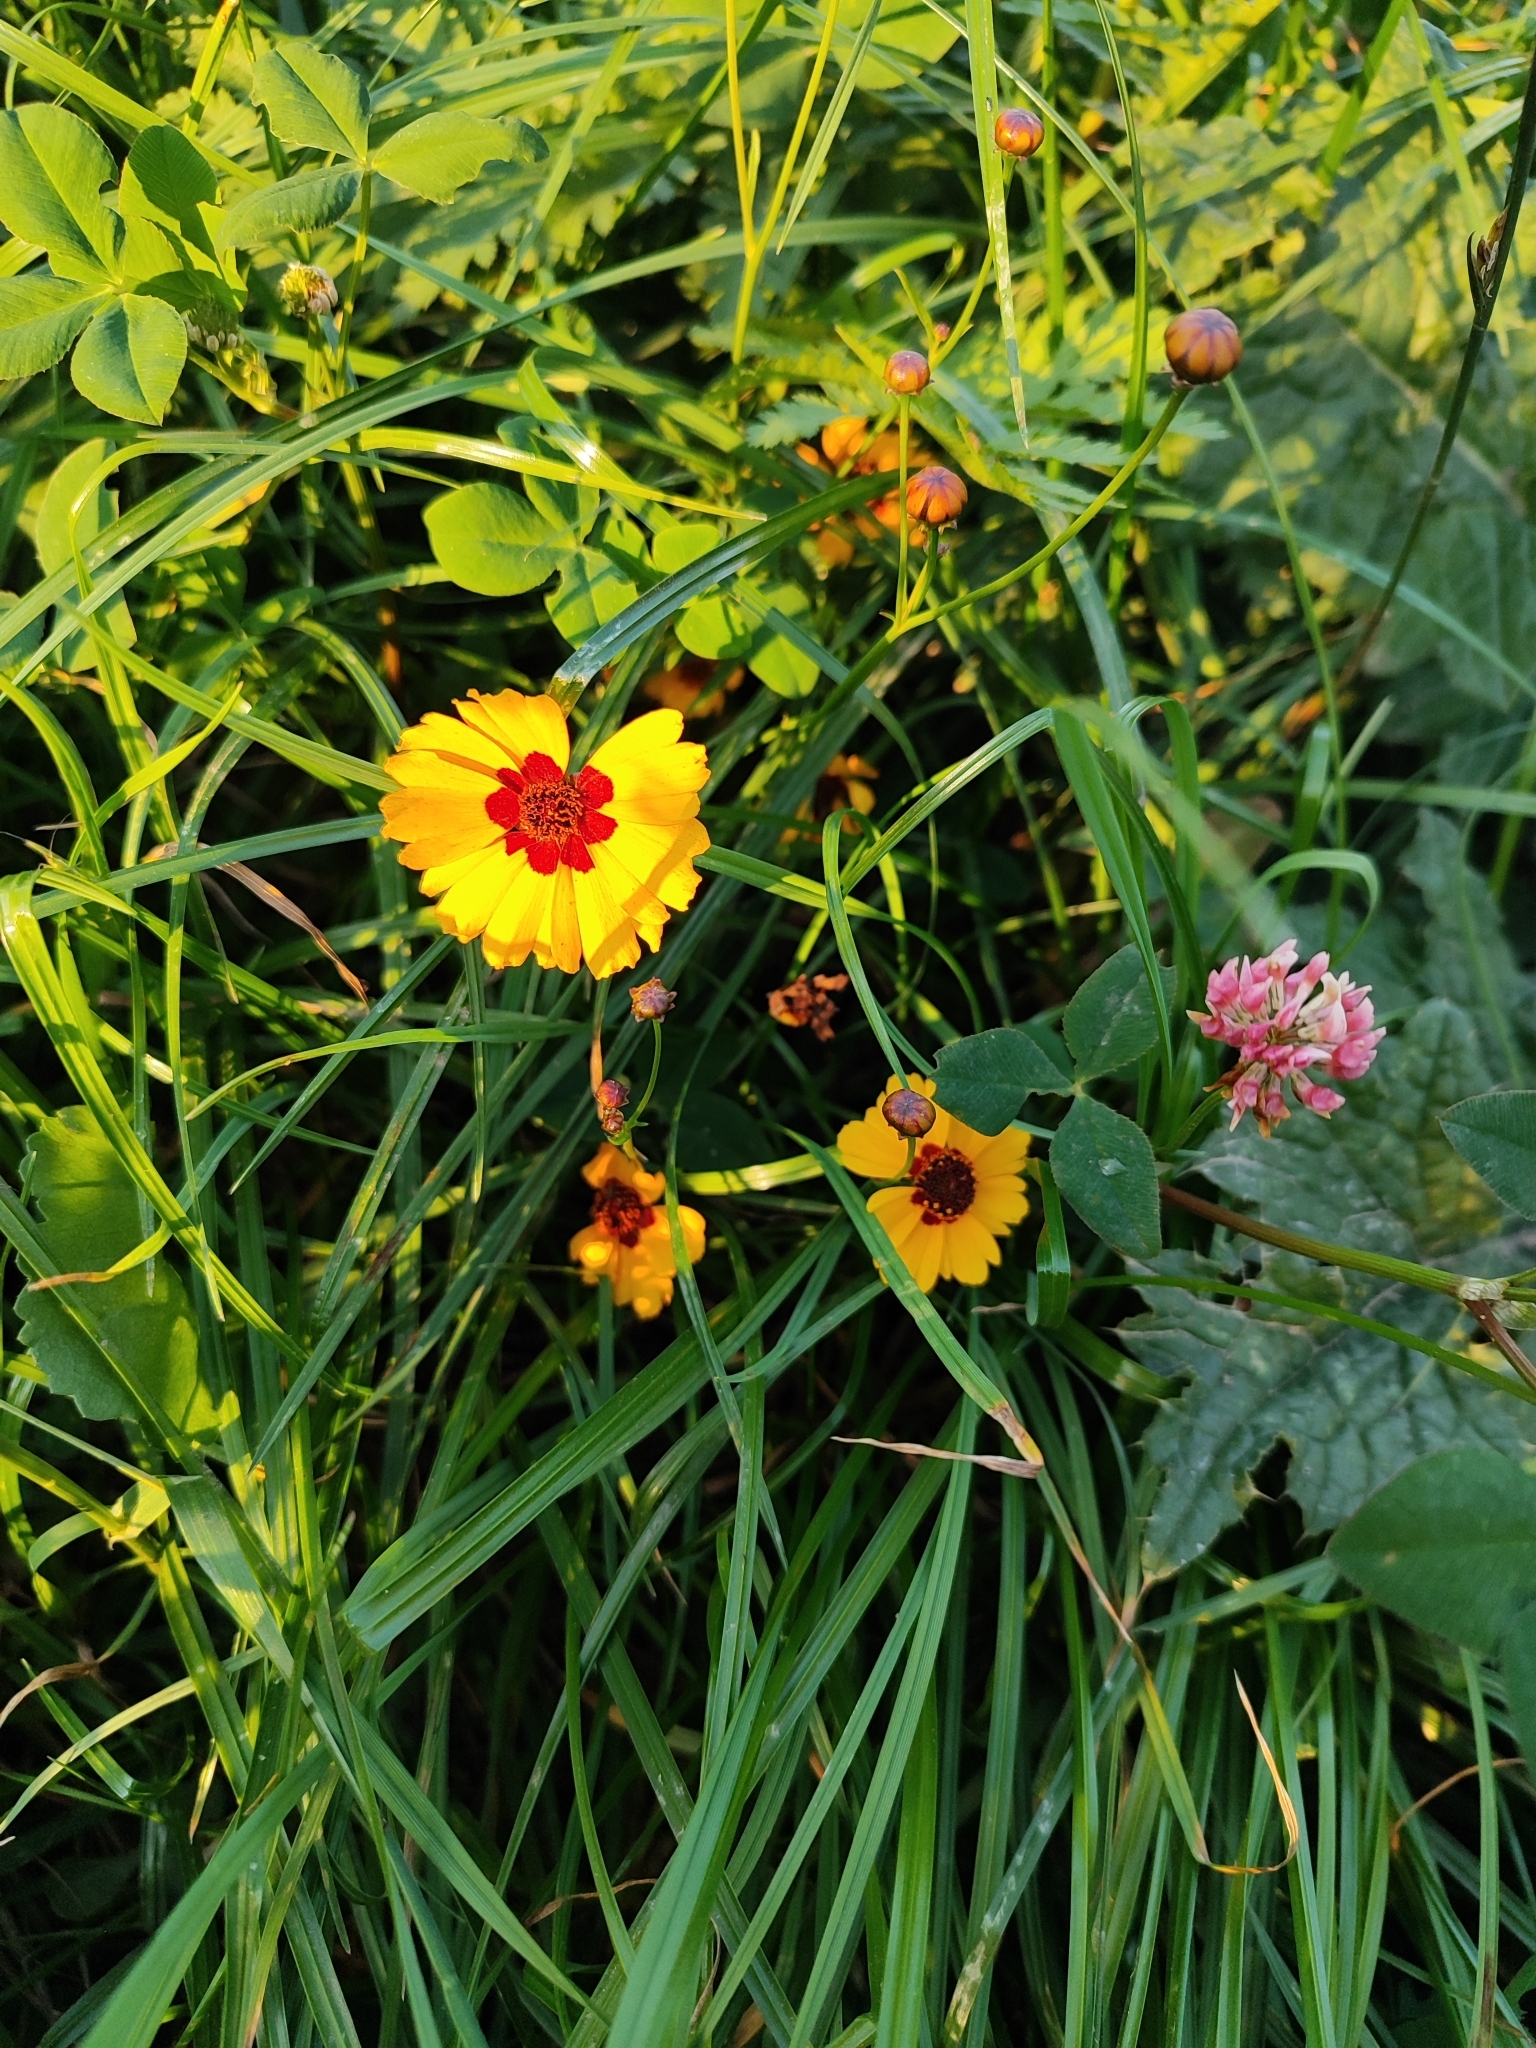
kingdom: Plantae
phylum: Tracheophyta
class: Magnoliopsida
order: Asterales
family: Asteraceae
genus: Coreopsis
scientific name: Coreopsis tinctoria
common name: Garden tickseed
